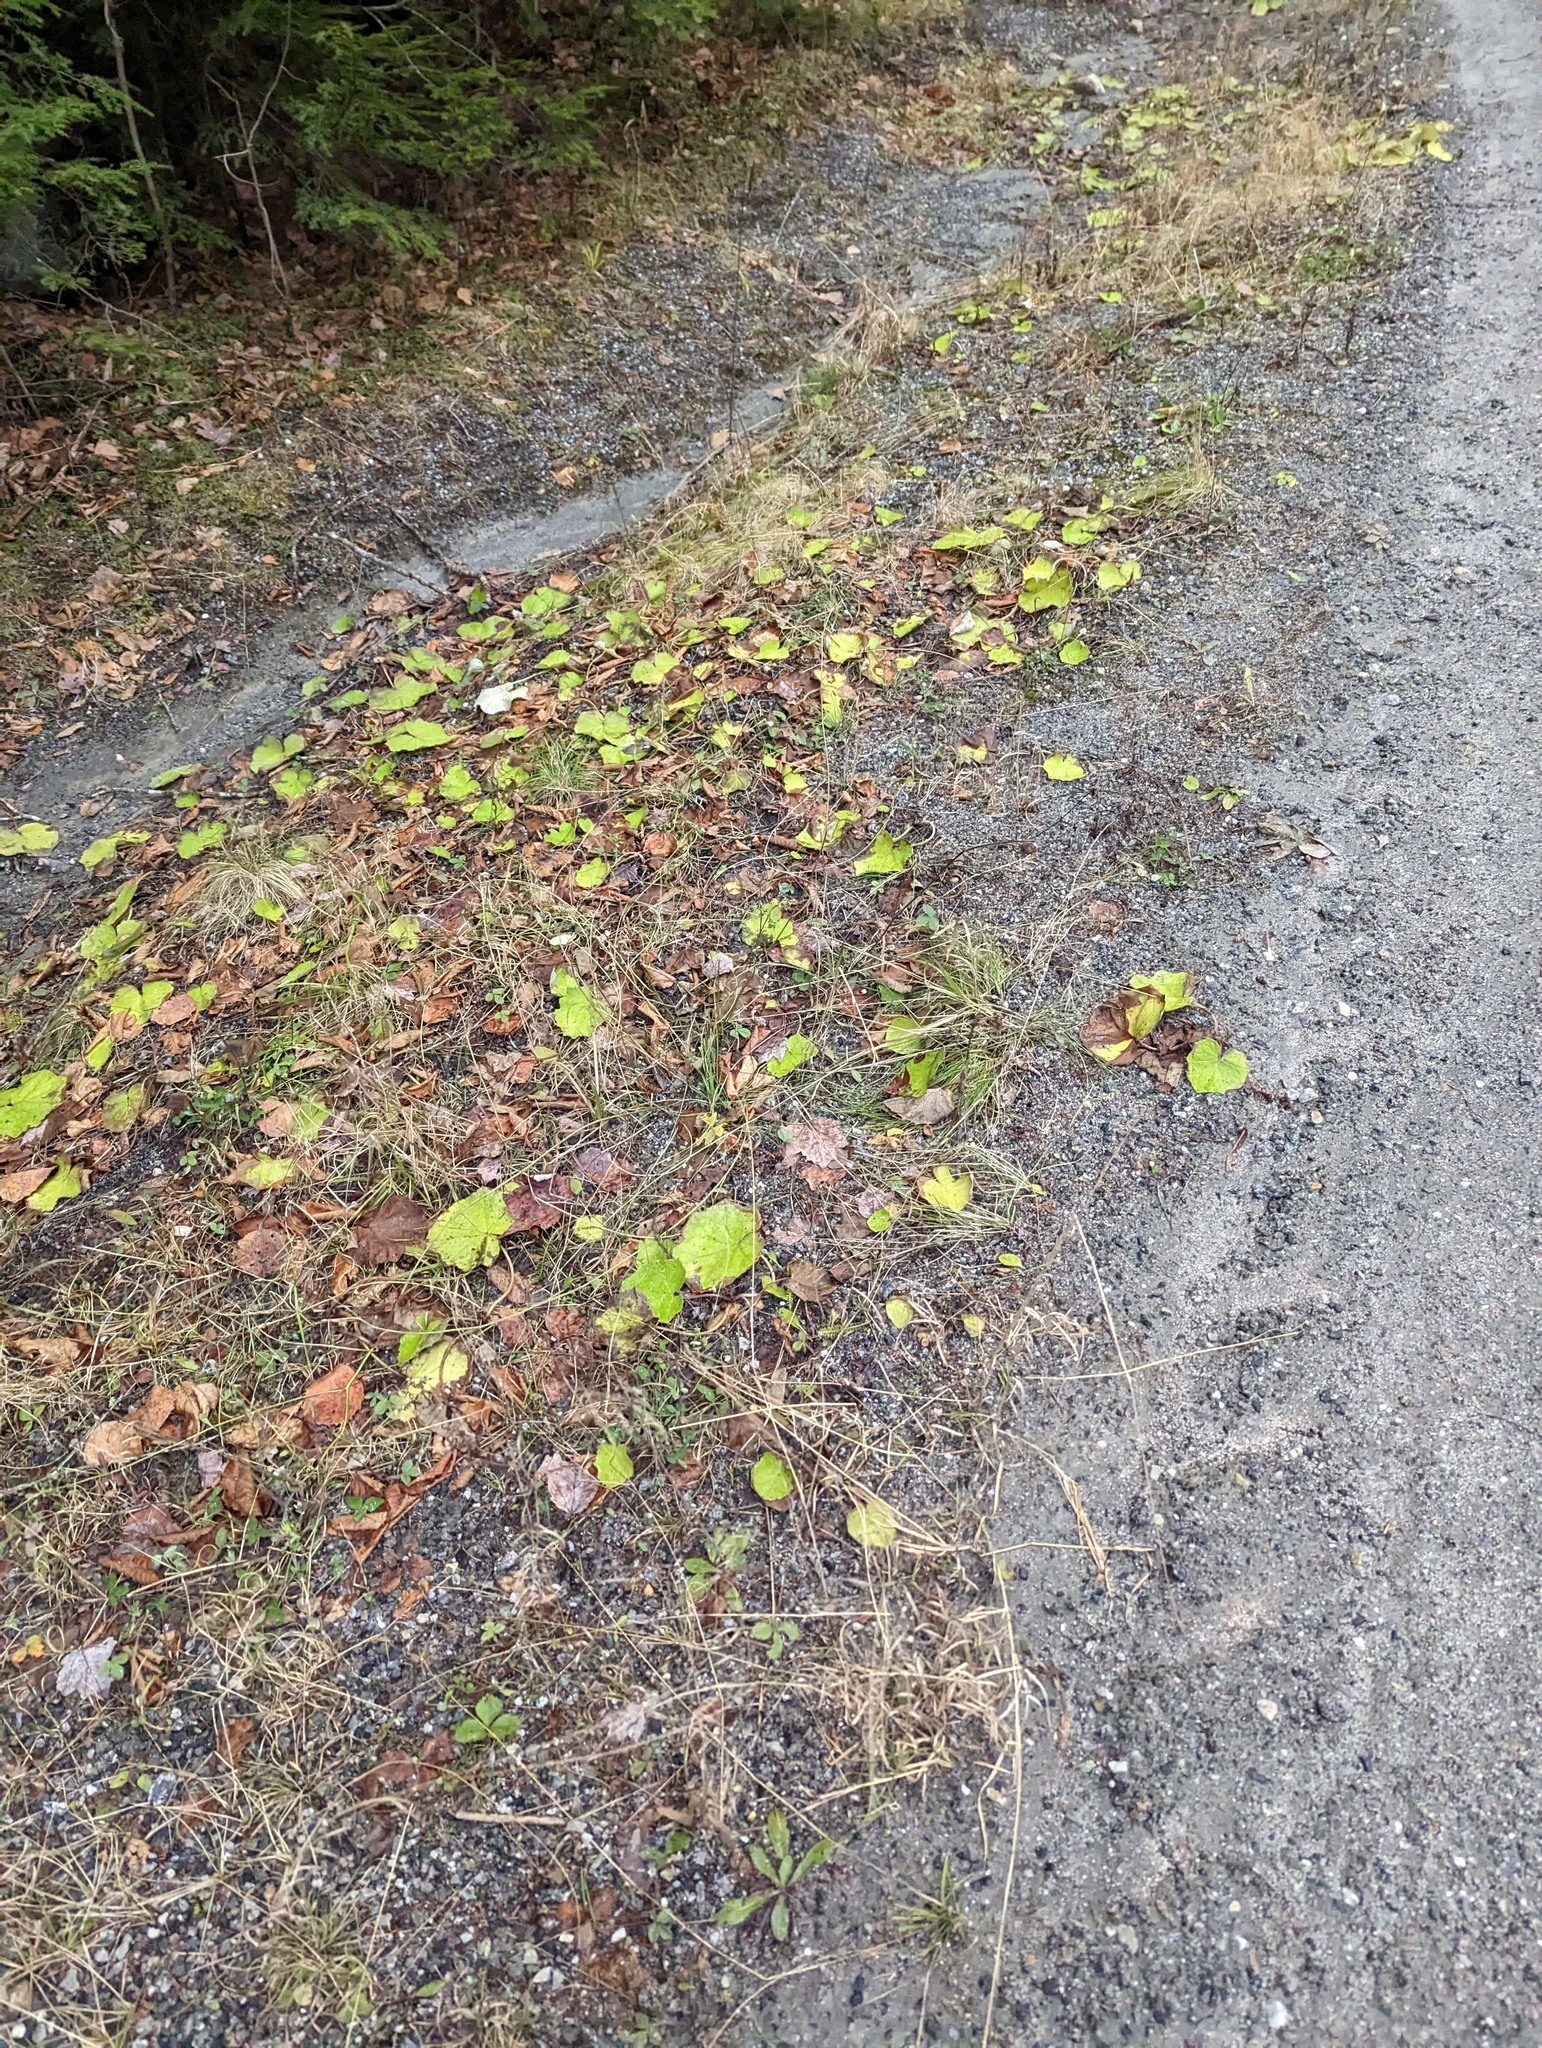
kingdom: Plantae
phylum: Tracheophyta
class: Magnoliopsida
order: Asterales
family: Asteraceae
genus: Tussilago
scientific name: Tussilago farfara
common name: Coltsfoot
